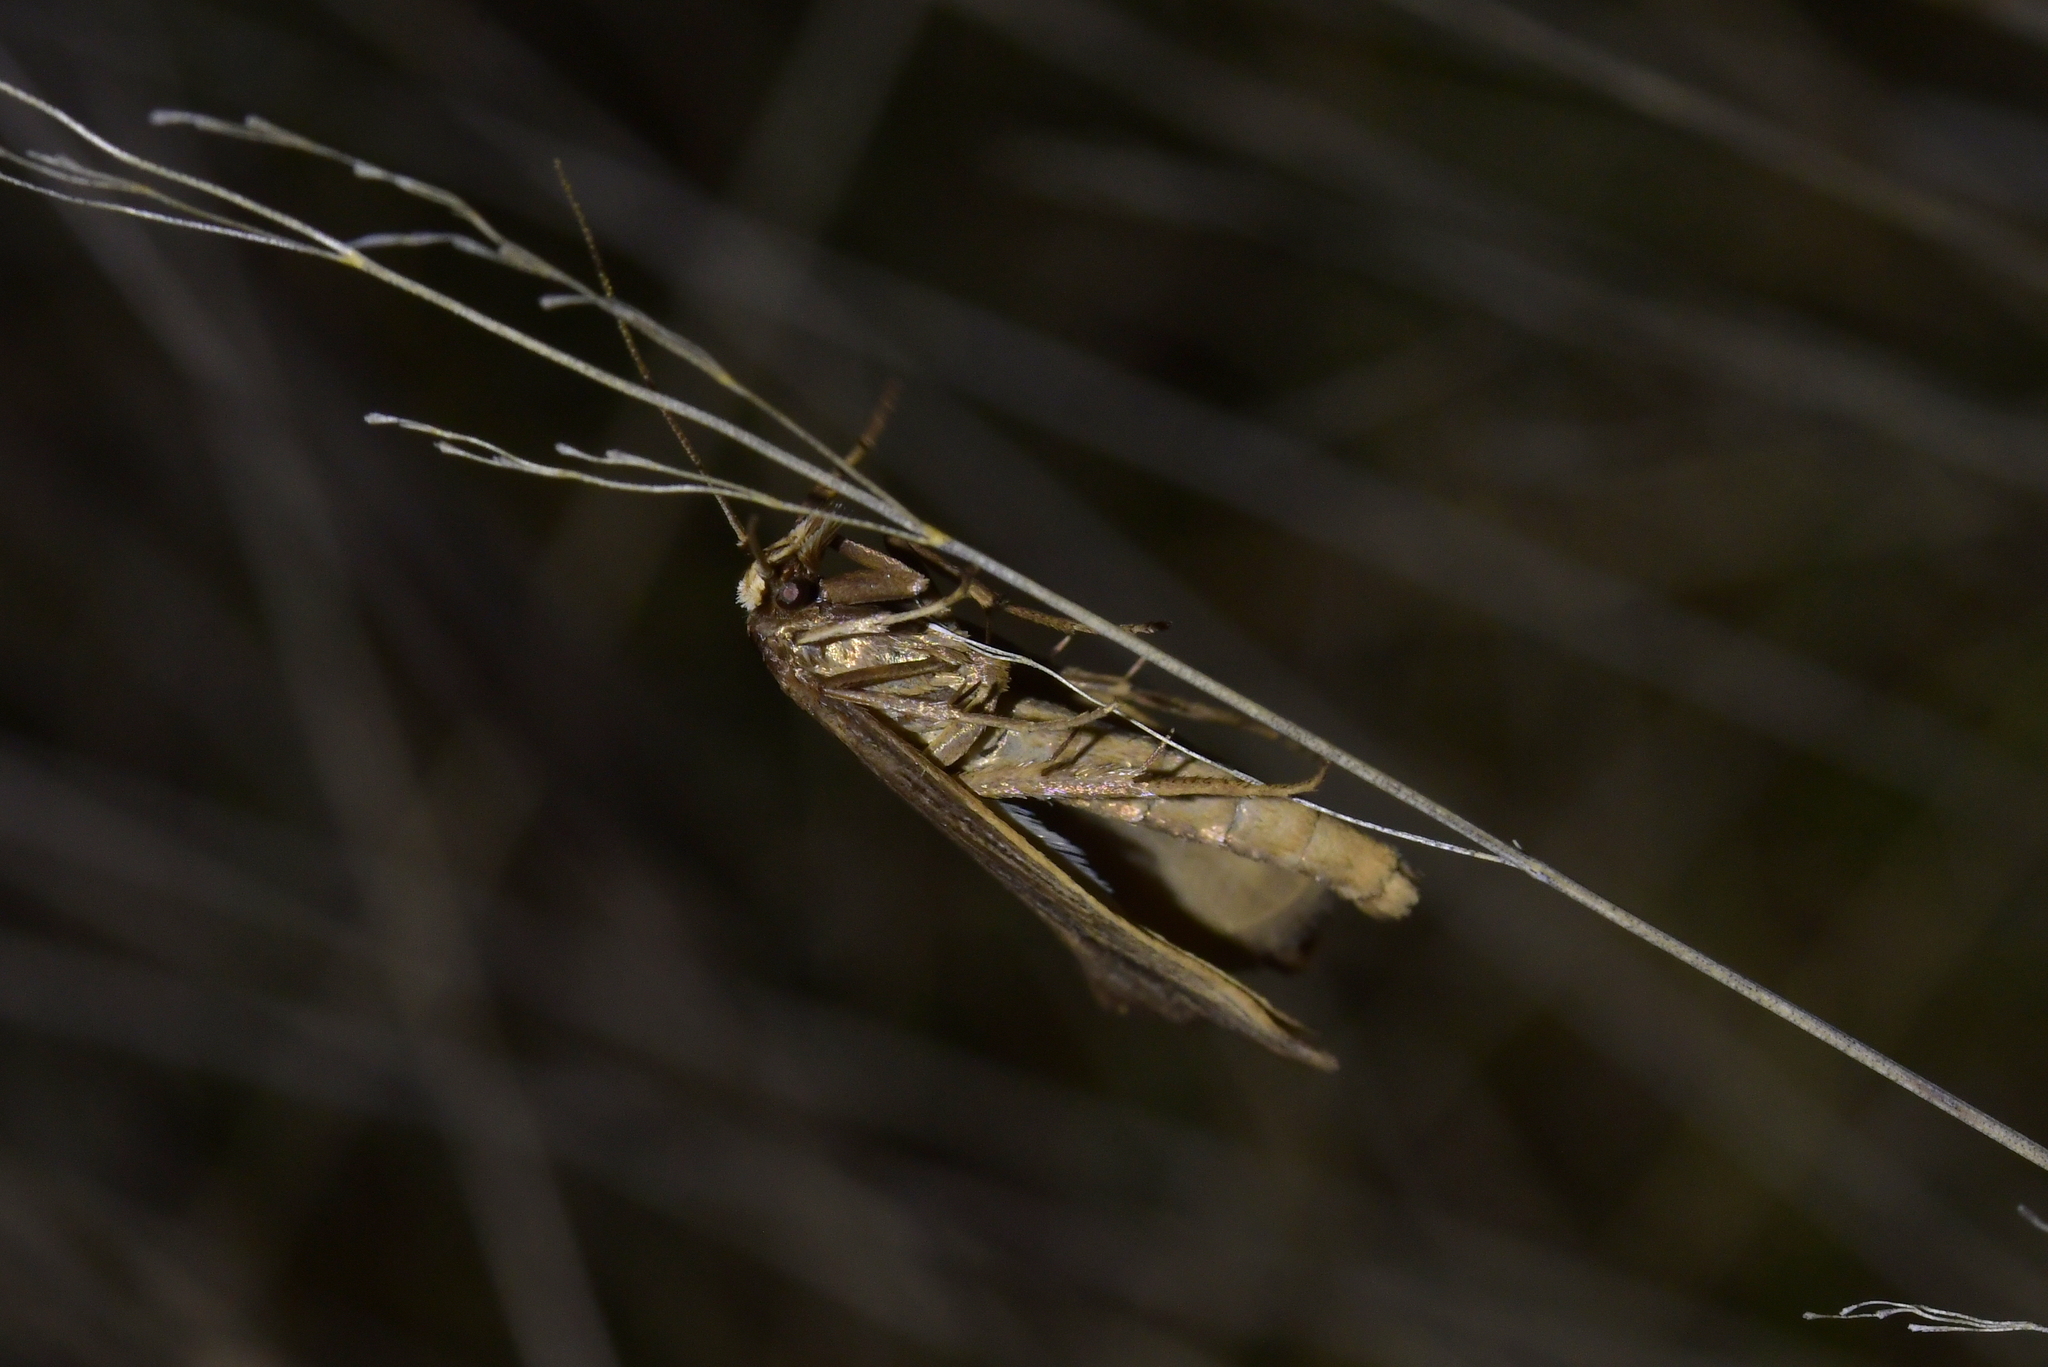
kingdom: Animalia
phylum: Arthropoda
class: Insecta
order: Lepidoptera
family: Plutellidae
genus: Proditrix
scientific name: Proditrix megalynta
